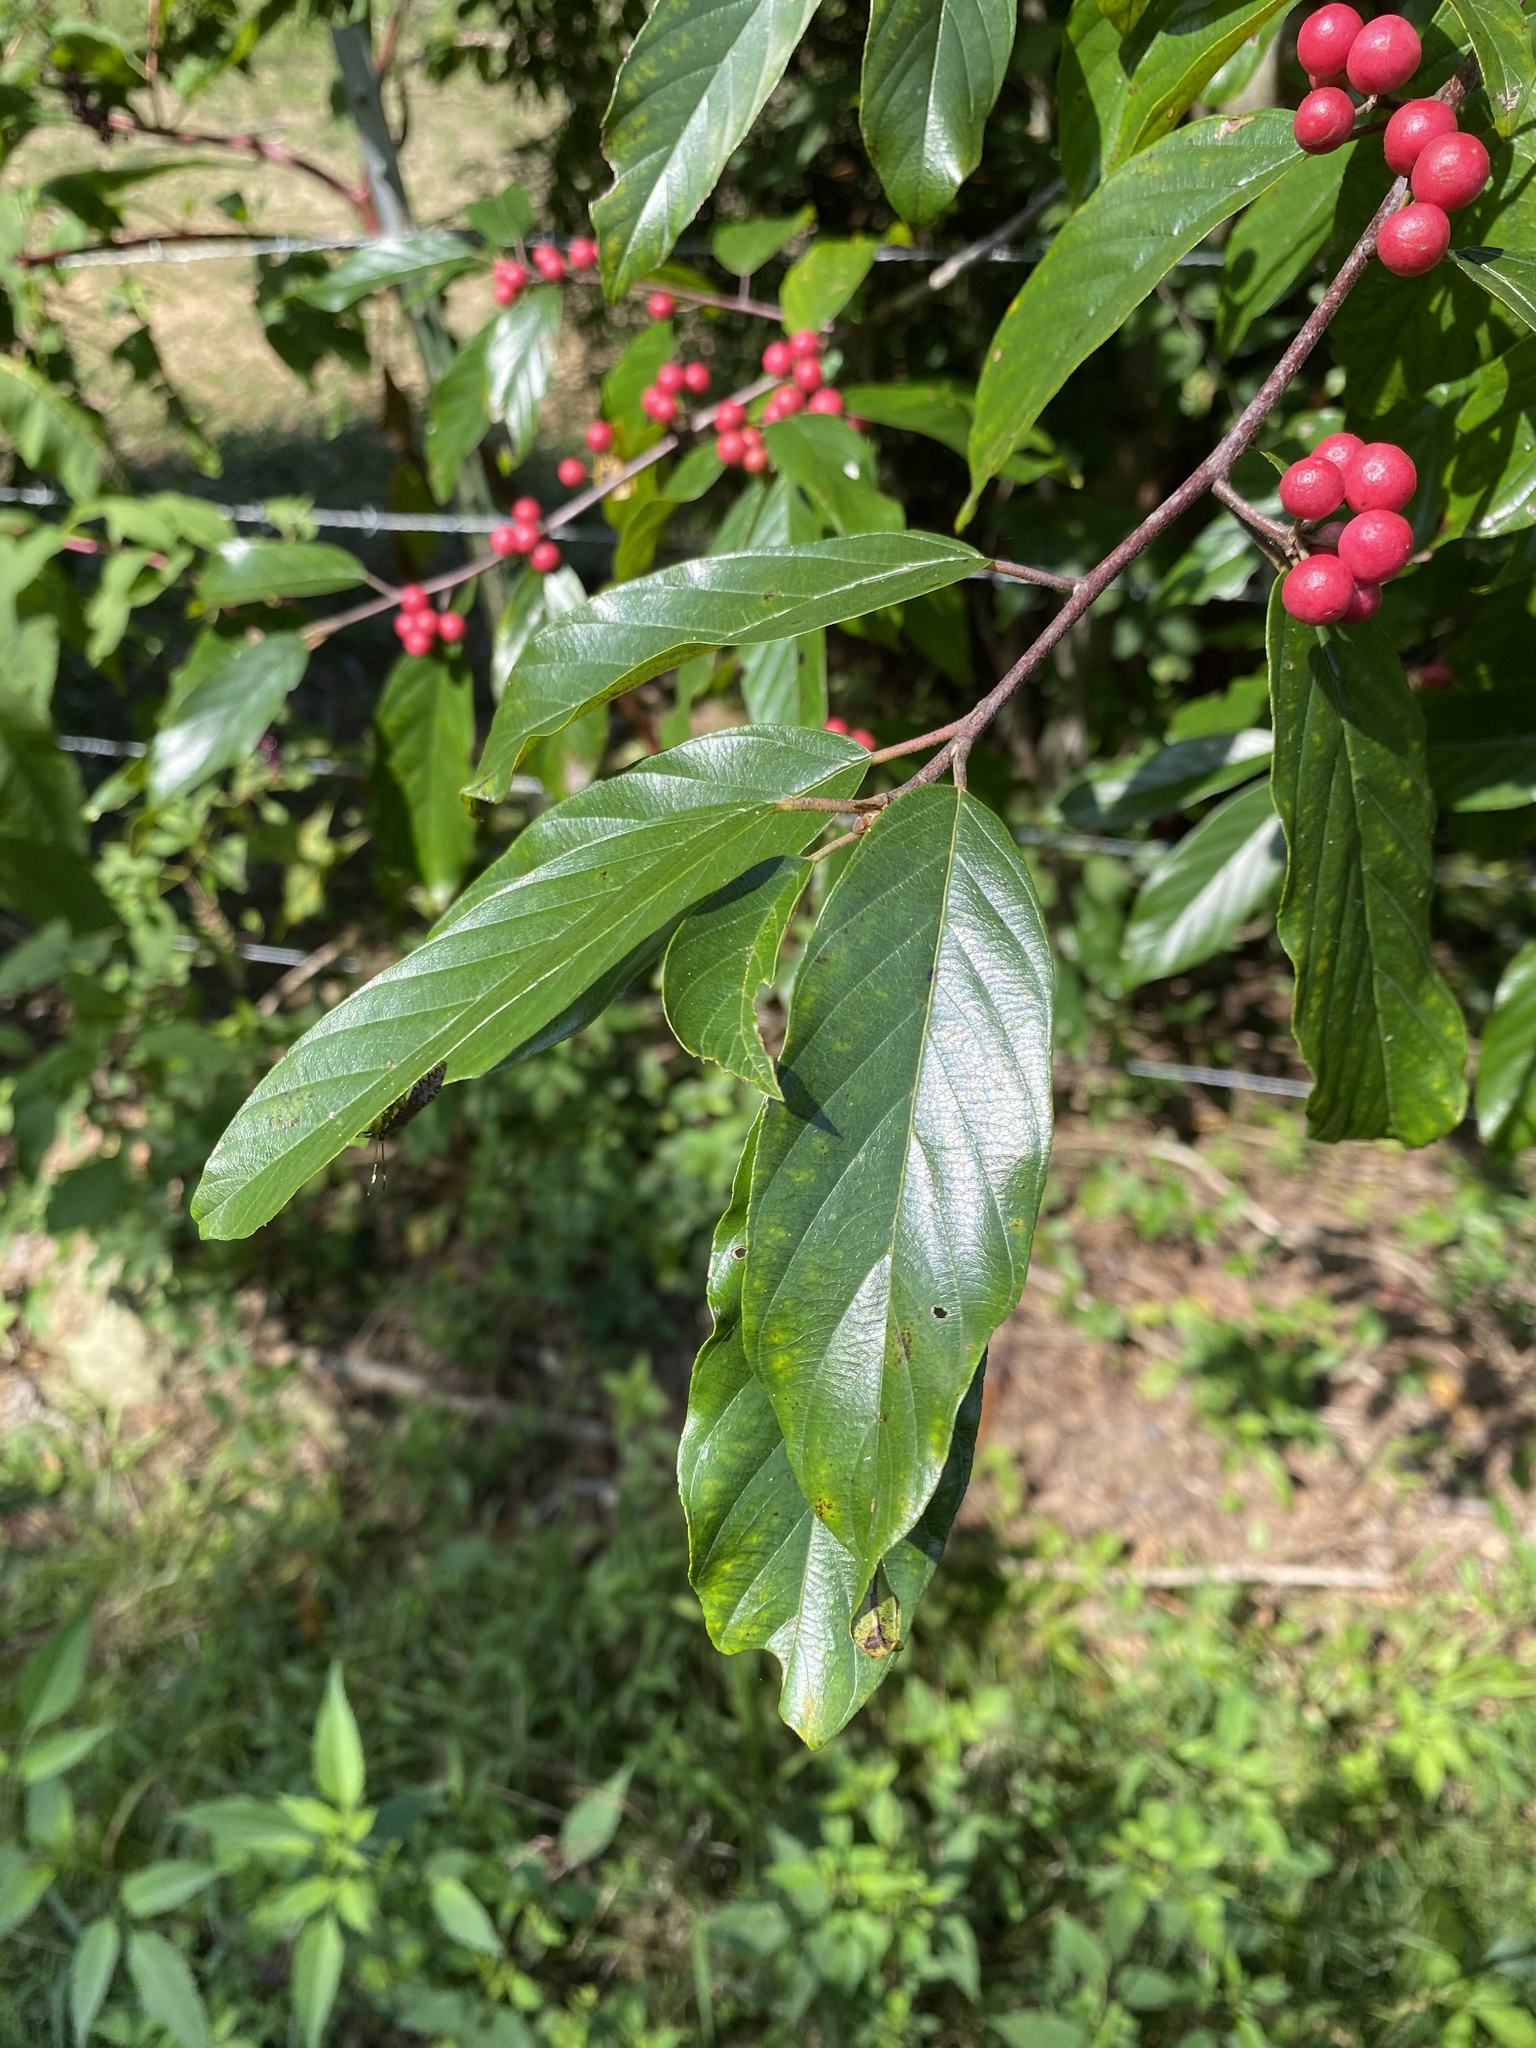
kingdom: Plantae
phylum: Tracheophyta
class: Magnoliopsida
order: Rosales
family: Rhamnaceae
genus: Frangula
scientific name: Frangula caroliniana
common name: Carolina buckthorn
